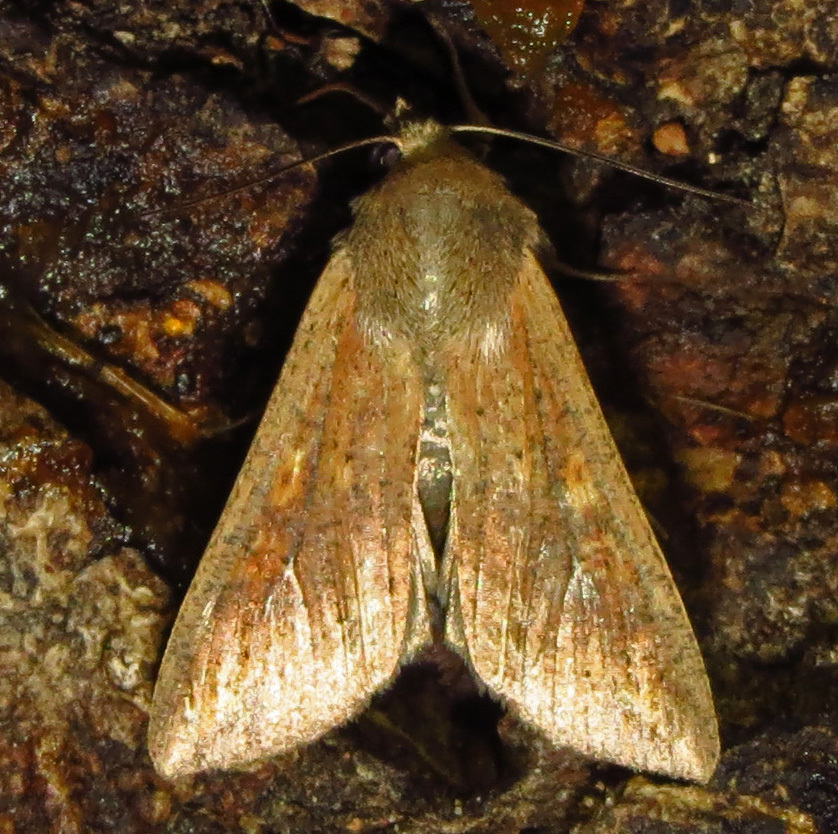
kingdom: Animalia
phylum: Arthropoda
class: Insecta
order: Lepidoptera
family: Noctuidae
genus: Mythimna
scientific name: Mythimna unipuncta
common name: White-speck
